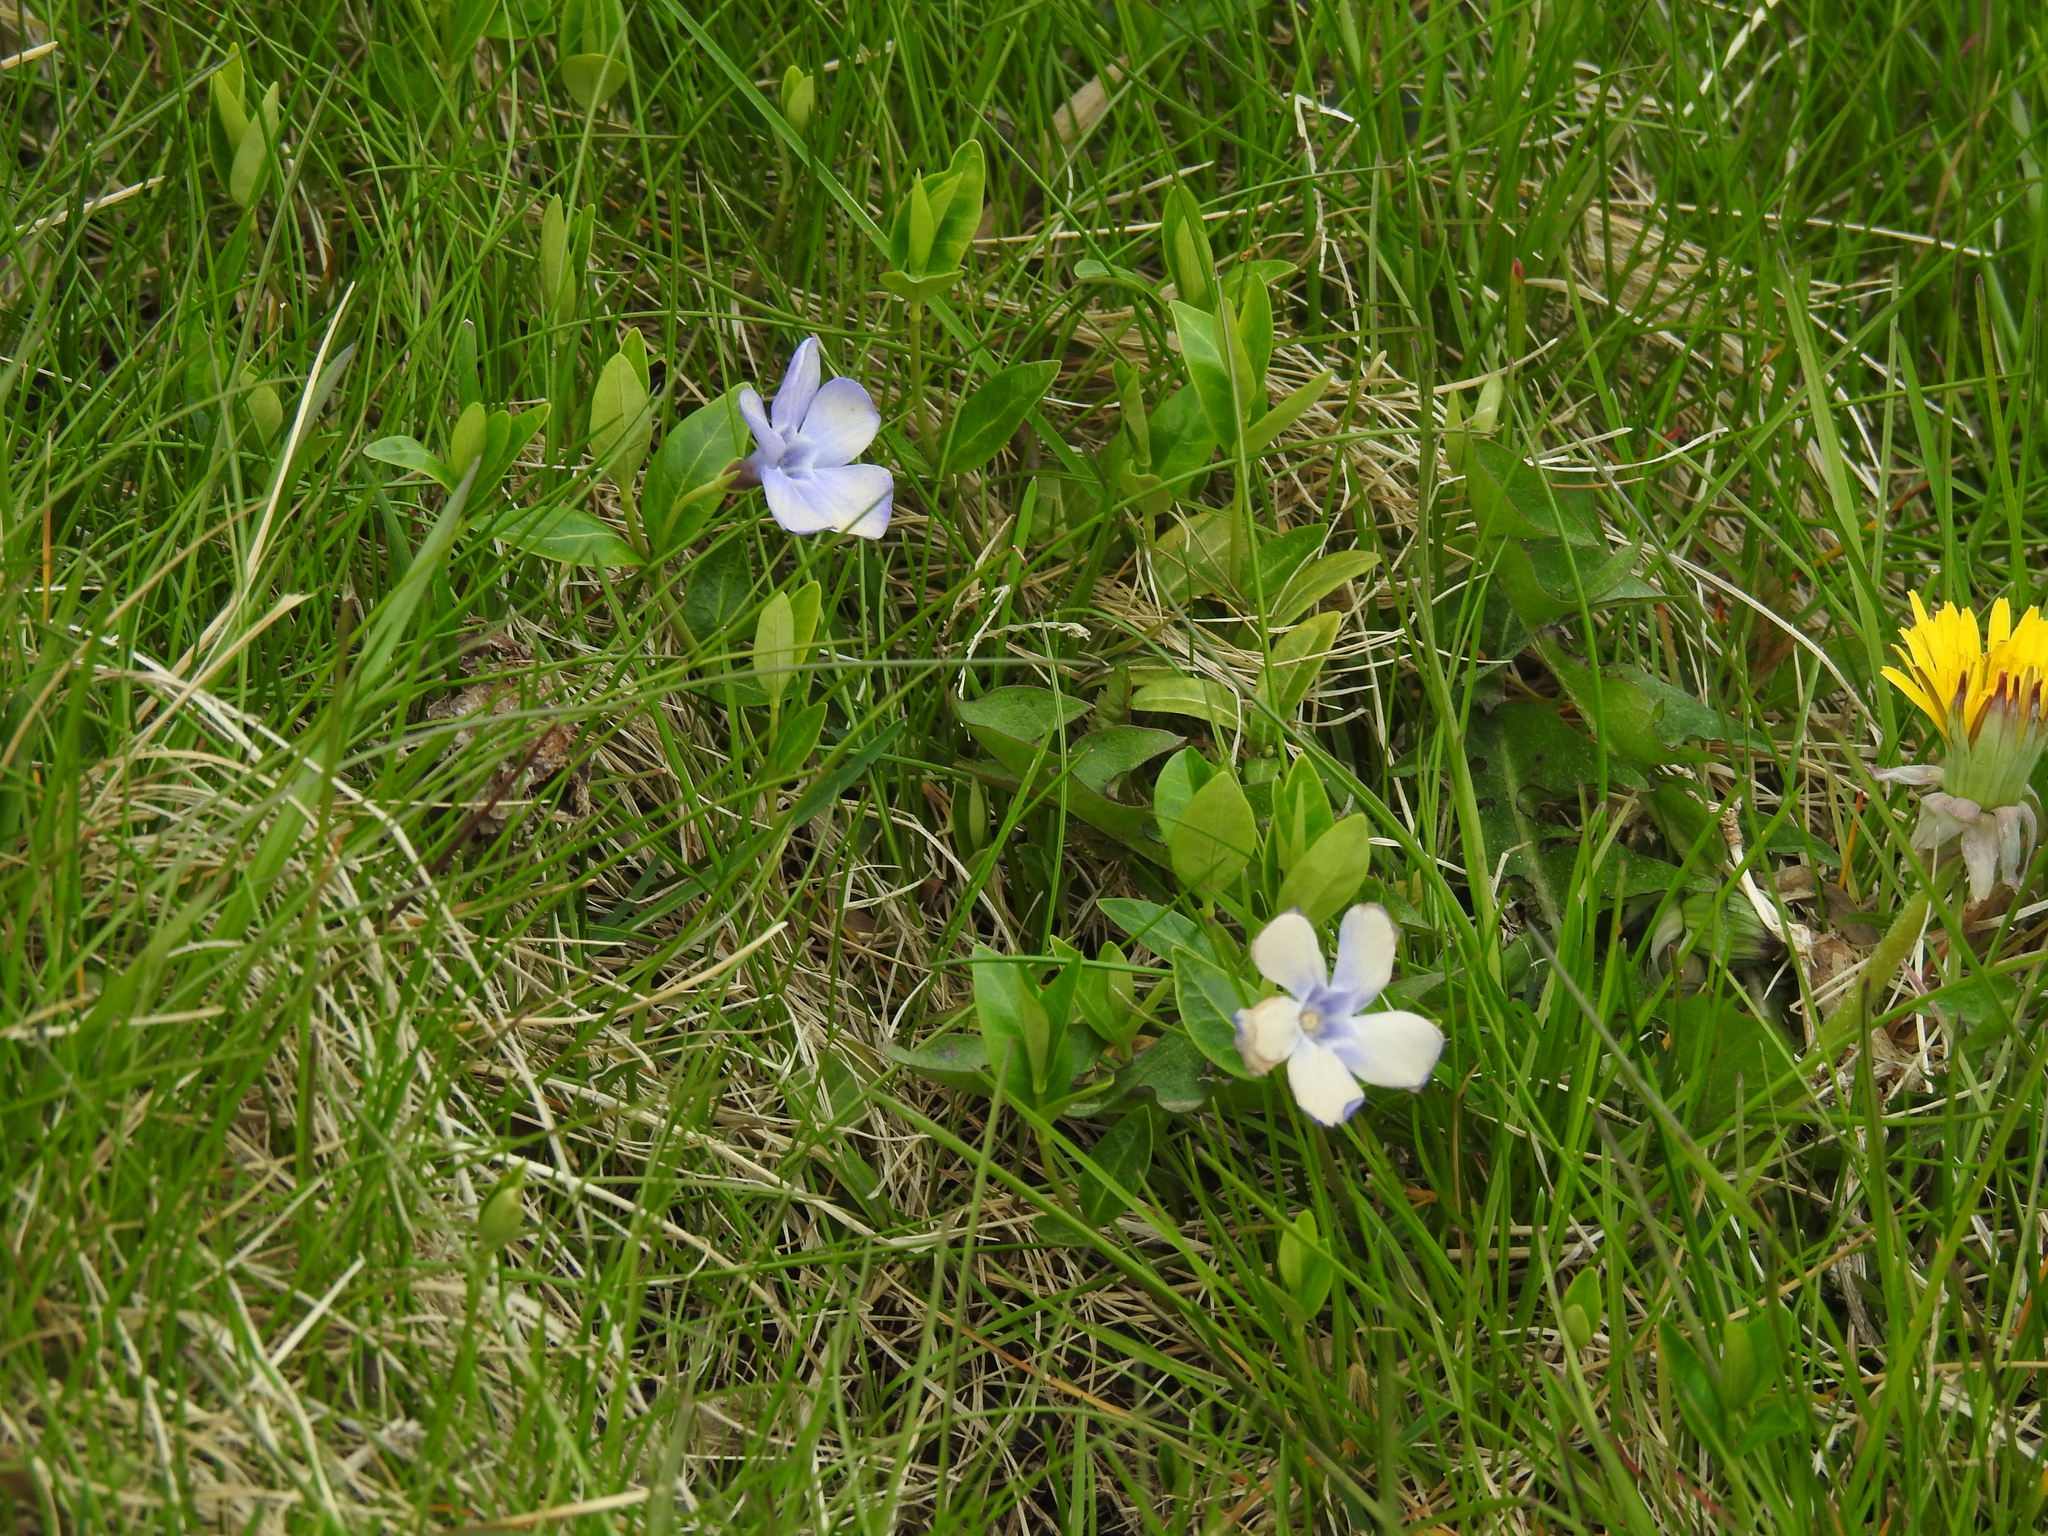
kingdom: Plantae
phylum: Tracheophyta
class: Magnoliopsida
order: Gentianales
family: Apocynaceae
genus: Vinca
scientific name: Vinca minor
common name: Lesser periwinkle
